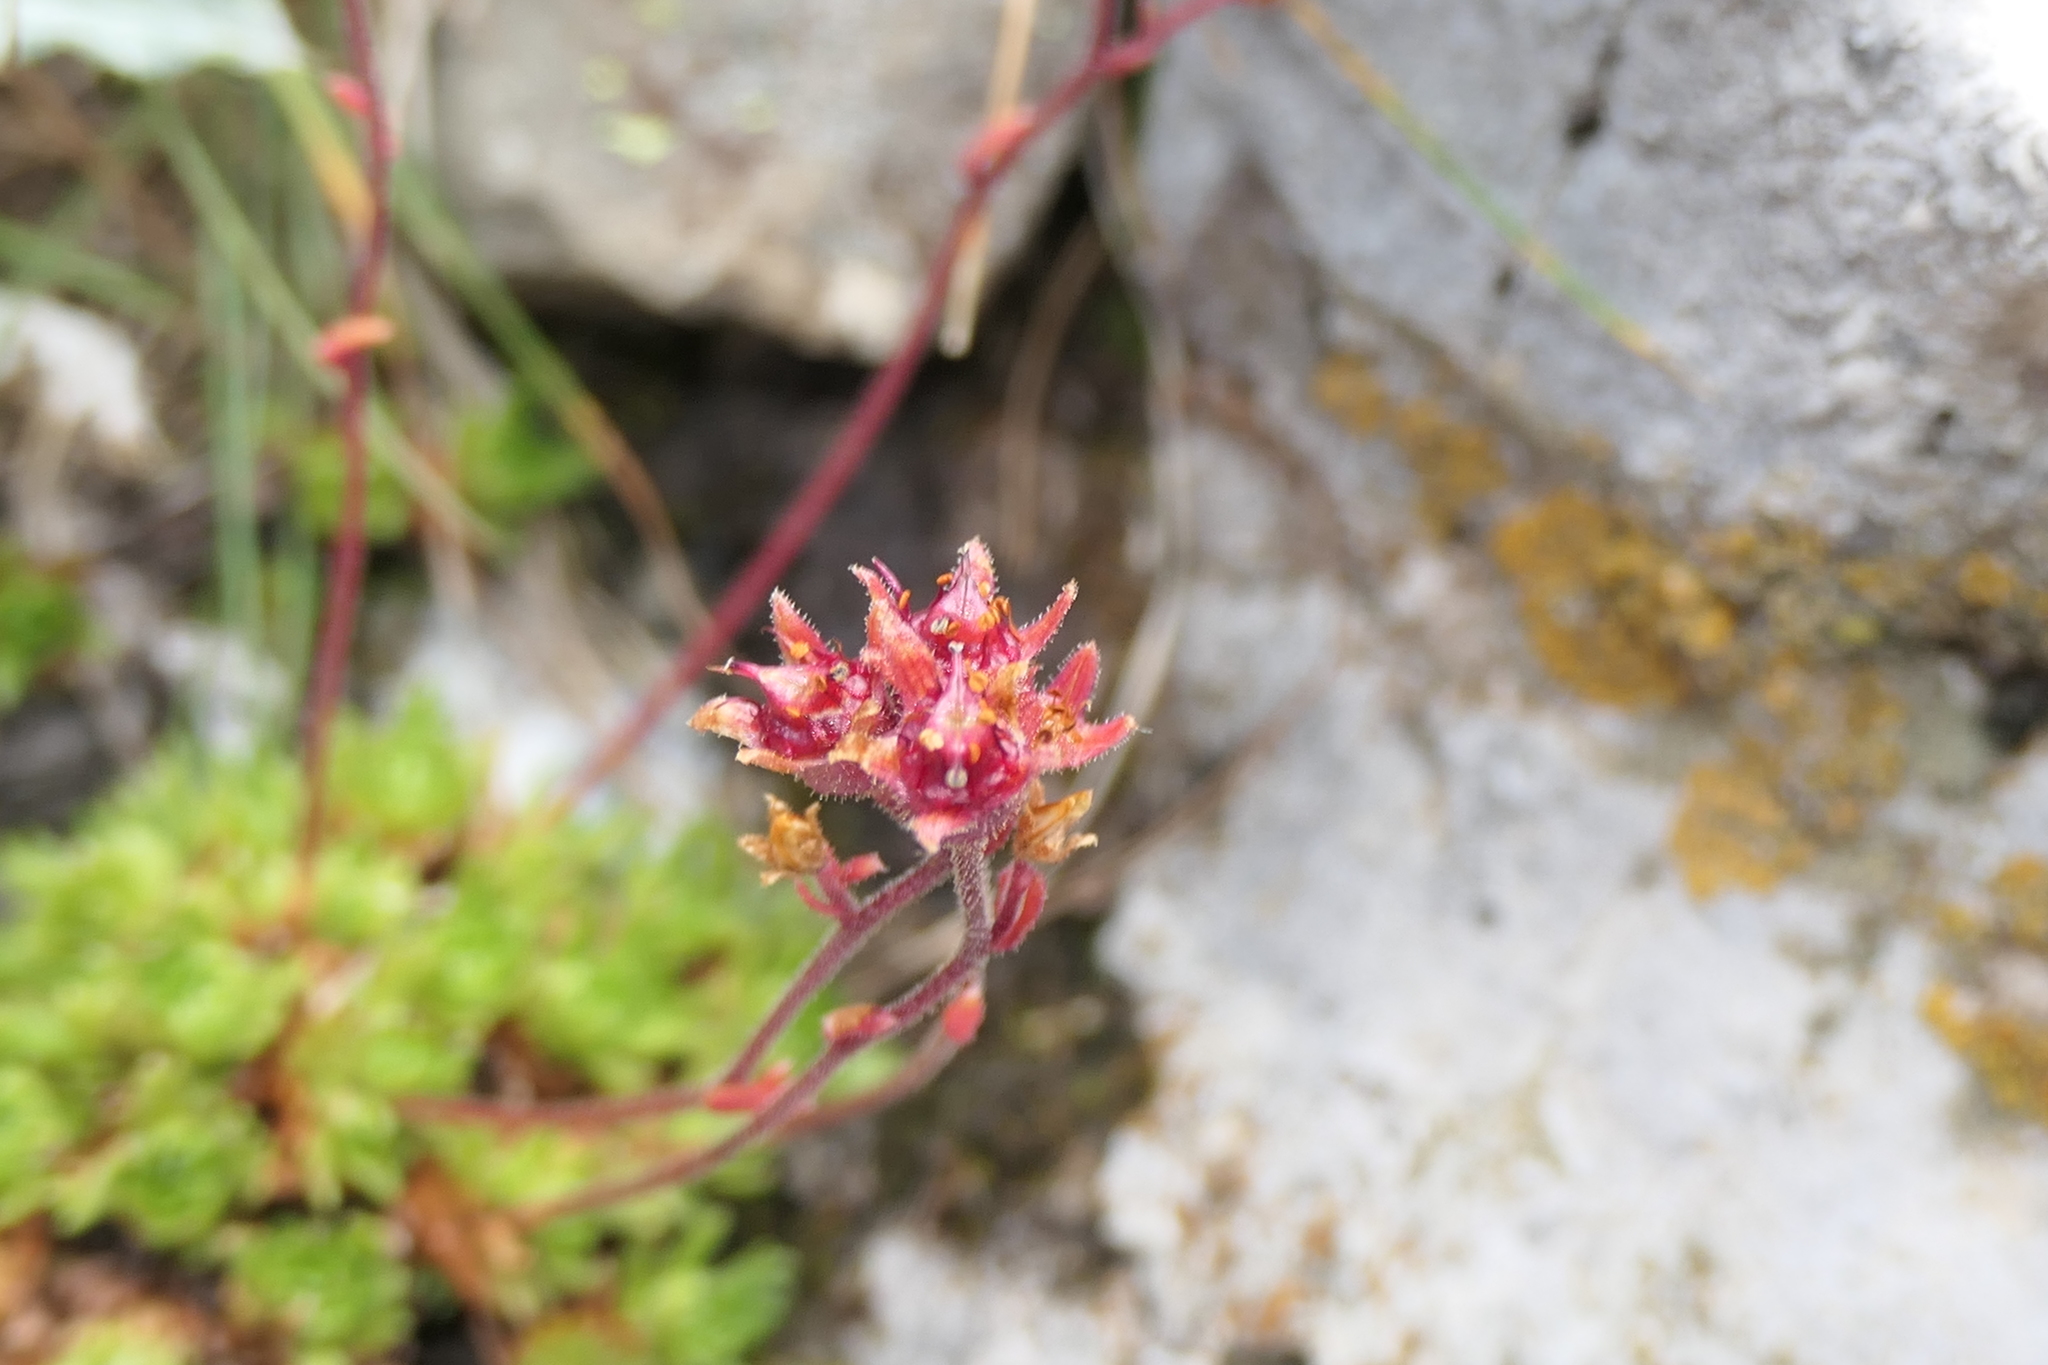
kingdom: Plantae
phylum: Tracheophyta
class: Magnoliopsida
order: Saxifragales
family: Saxifragaceae
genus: Saxifraga
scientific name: Saxifraga hariotii
